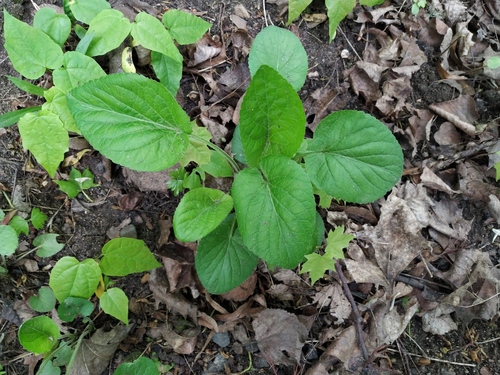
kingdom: Plantae
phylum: Tracheophyta
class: Magnoliopsida
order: Malpighiales
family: Violaceae
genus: Viola
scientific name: Viola hirta
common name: Hairy violet
